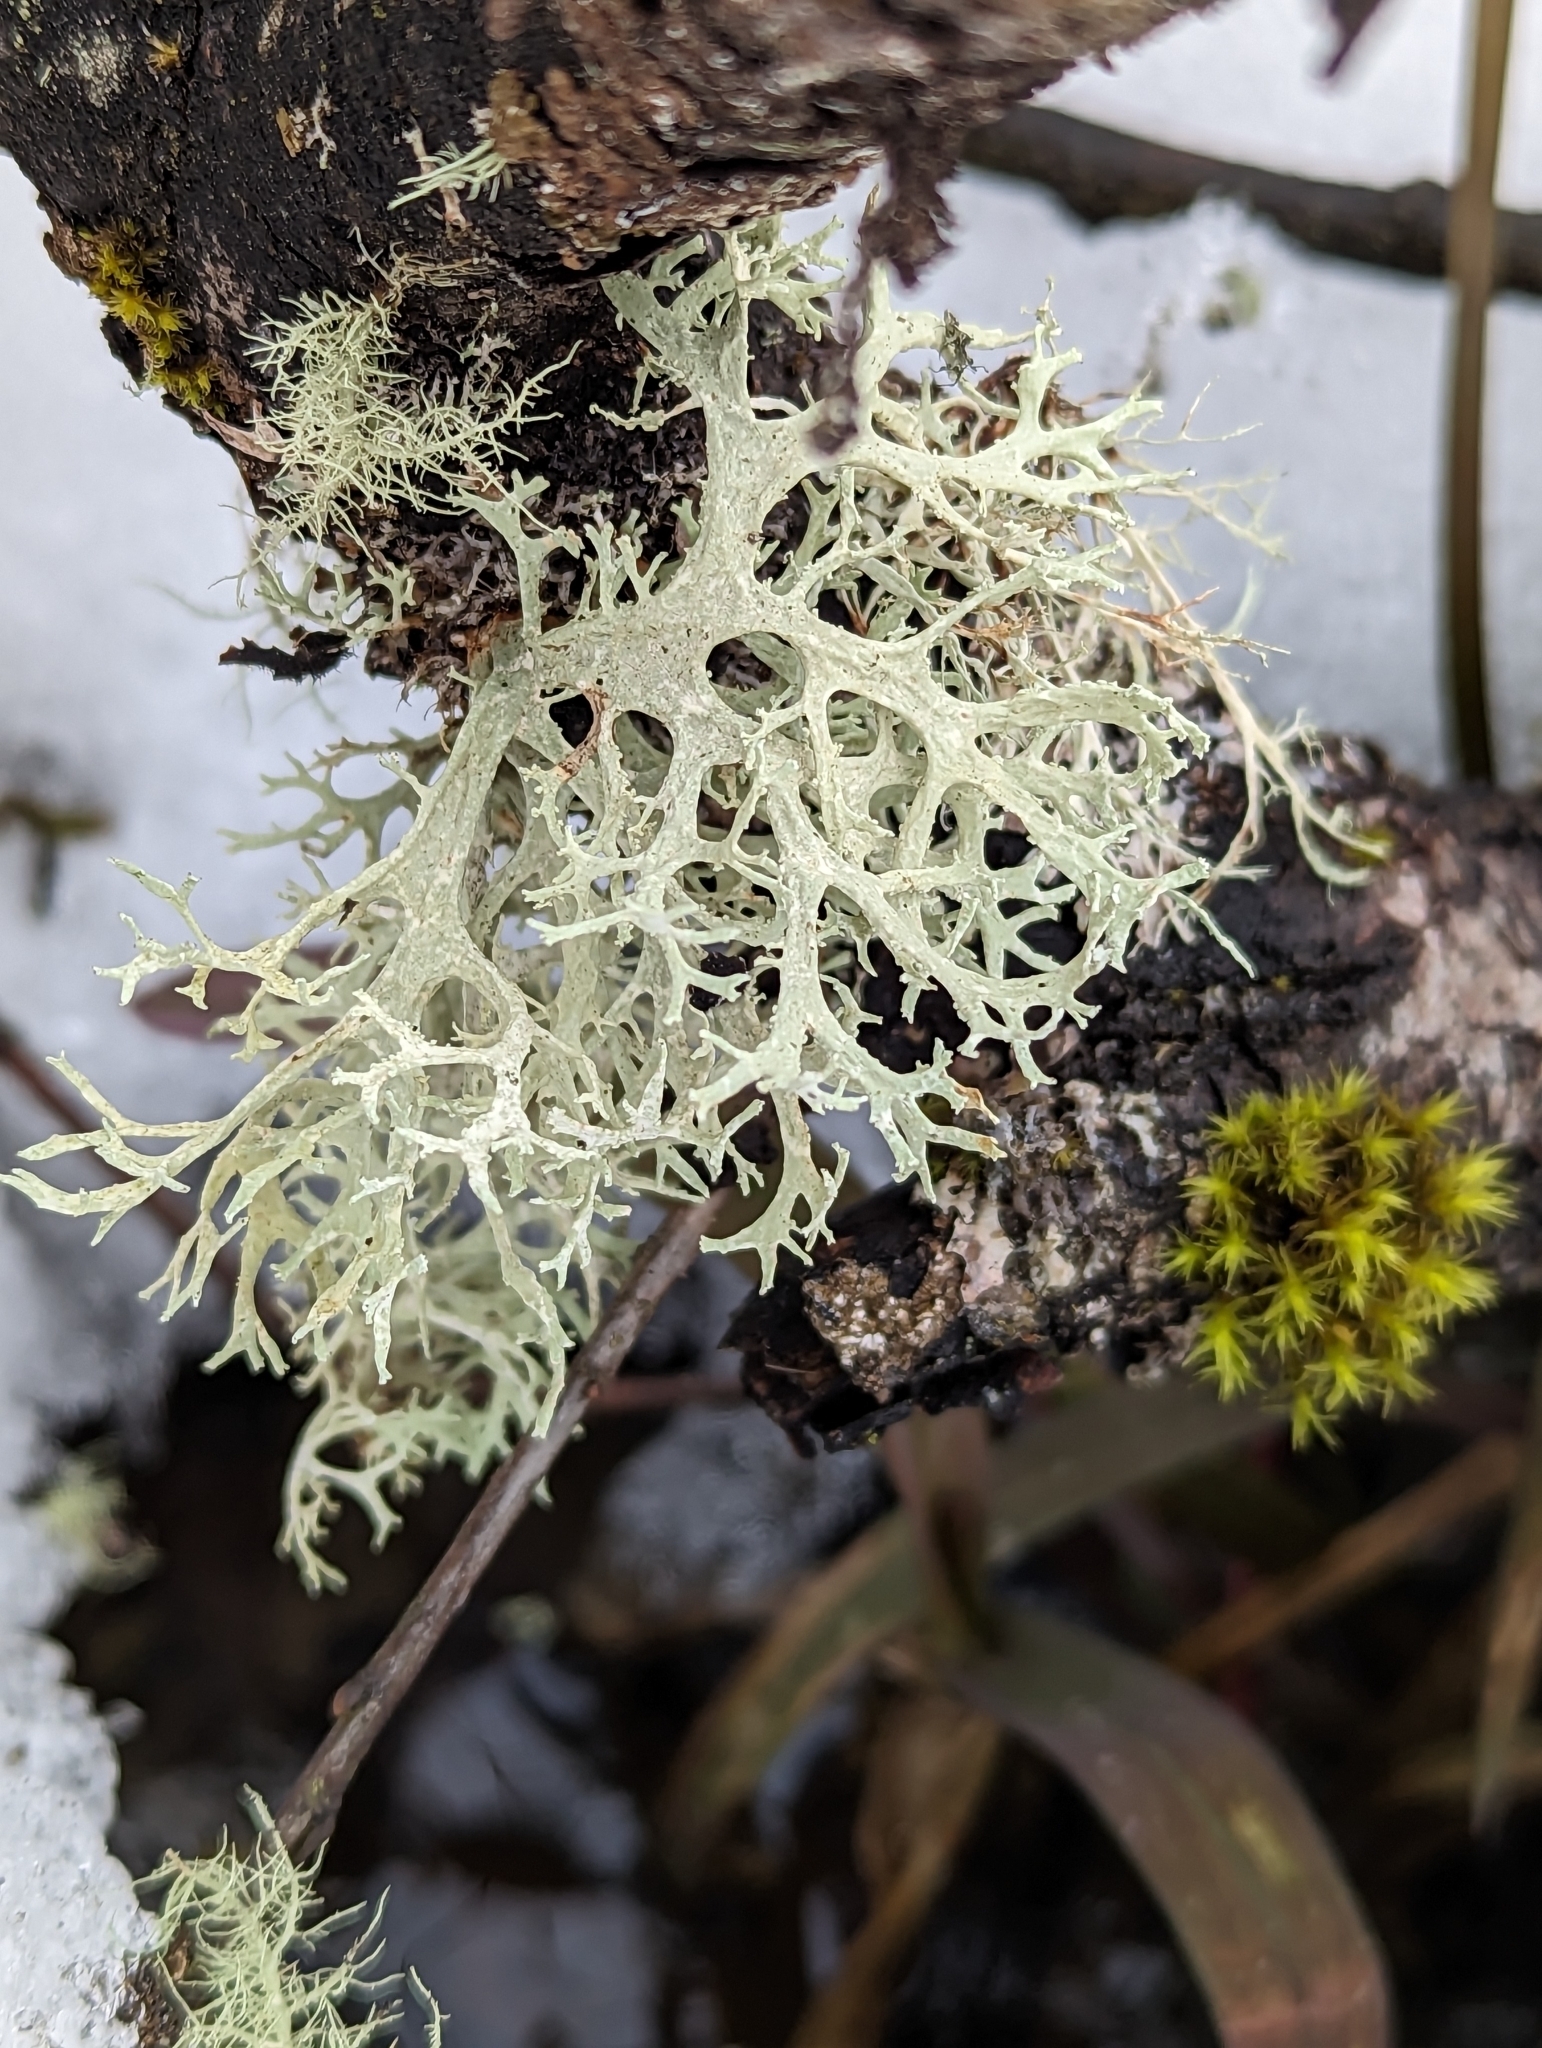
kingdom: Fungi
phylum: Ascomycota
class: Lecanoromycetes
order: Lecanorales
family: Parmeliaceae
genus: Evernia
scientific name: Evernia prunastri
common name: Oak moss
